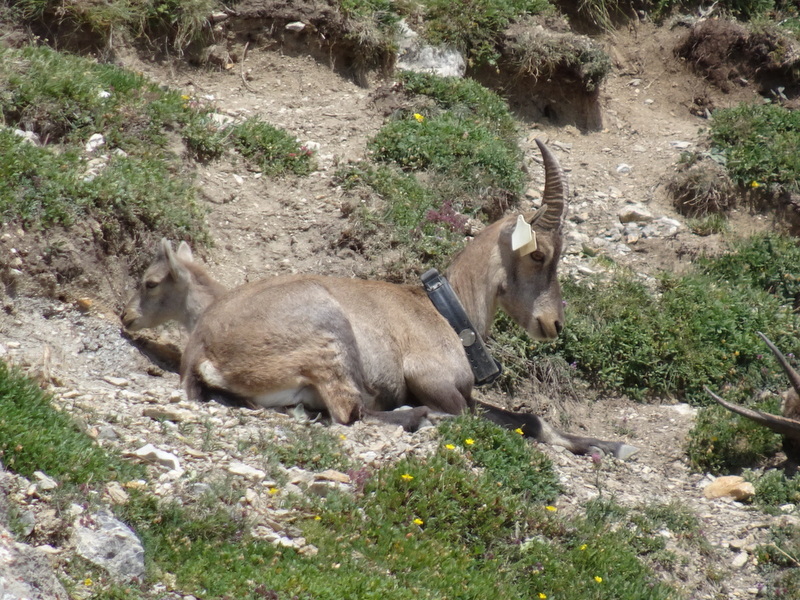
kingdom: Animalia
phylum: Chordata
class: Mammalia
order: Artiodactyla
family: Bovidae
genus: Capra
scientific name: Capra ibex
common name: Alpine ibex
